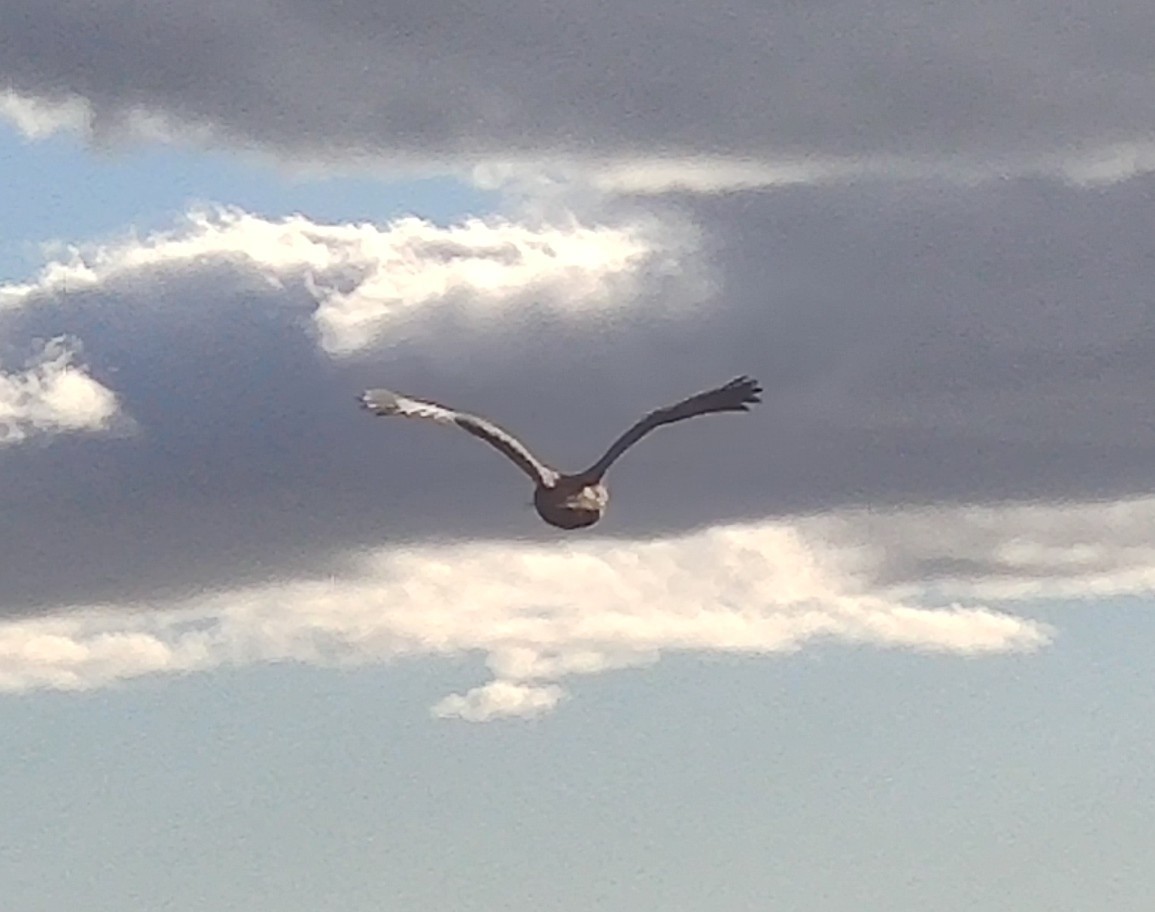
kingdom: Animalia
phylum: Chordata
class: Aves
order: Accipitriformes
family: Accipitridae
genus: Buteo
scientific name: Buteo jamaicensis
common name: Red-tailed hawk
